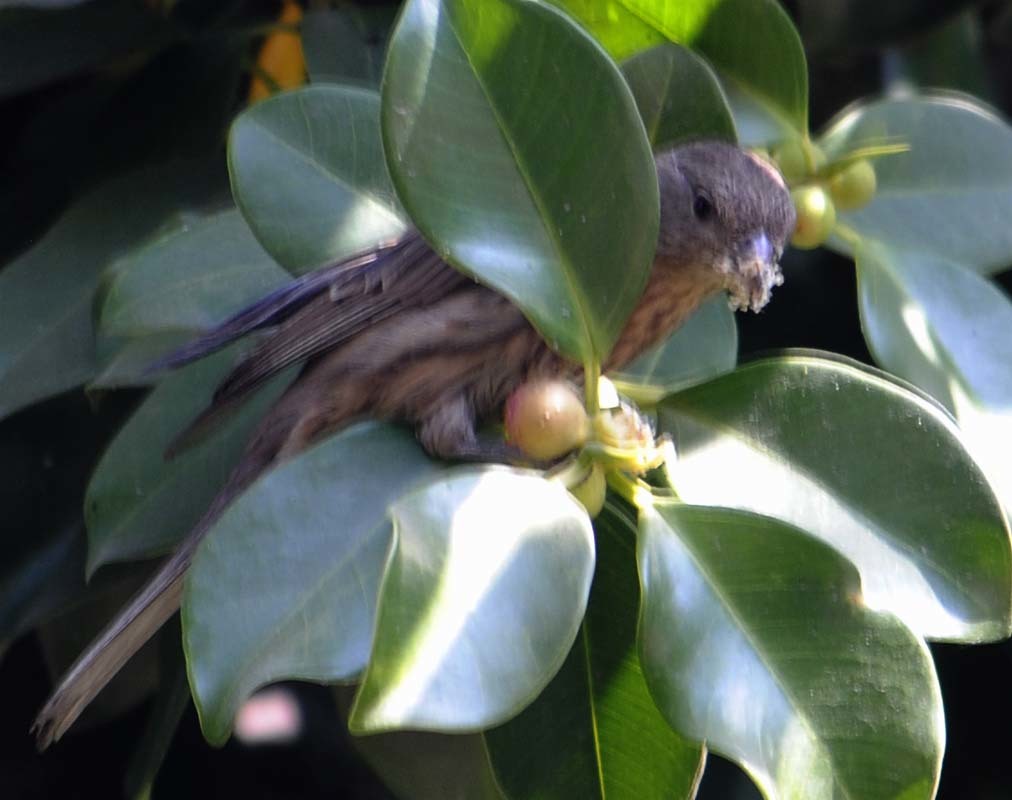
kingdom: Animalia
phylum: Chordata
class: Aves
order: Passeriformes
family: Fringillidae
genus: Haemorhous
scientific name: Haemorhous mexicanus
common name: House finch
